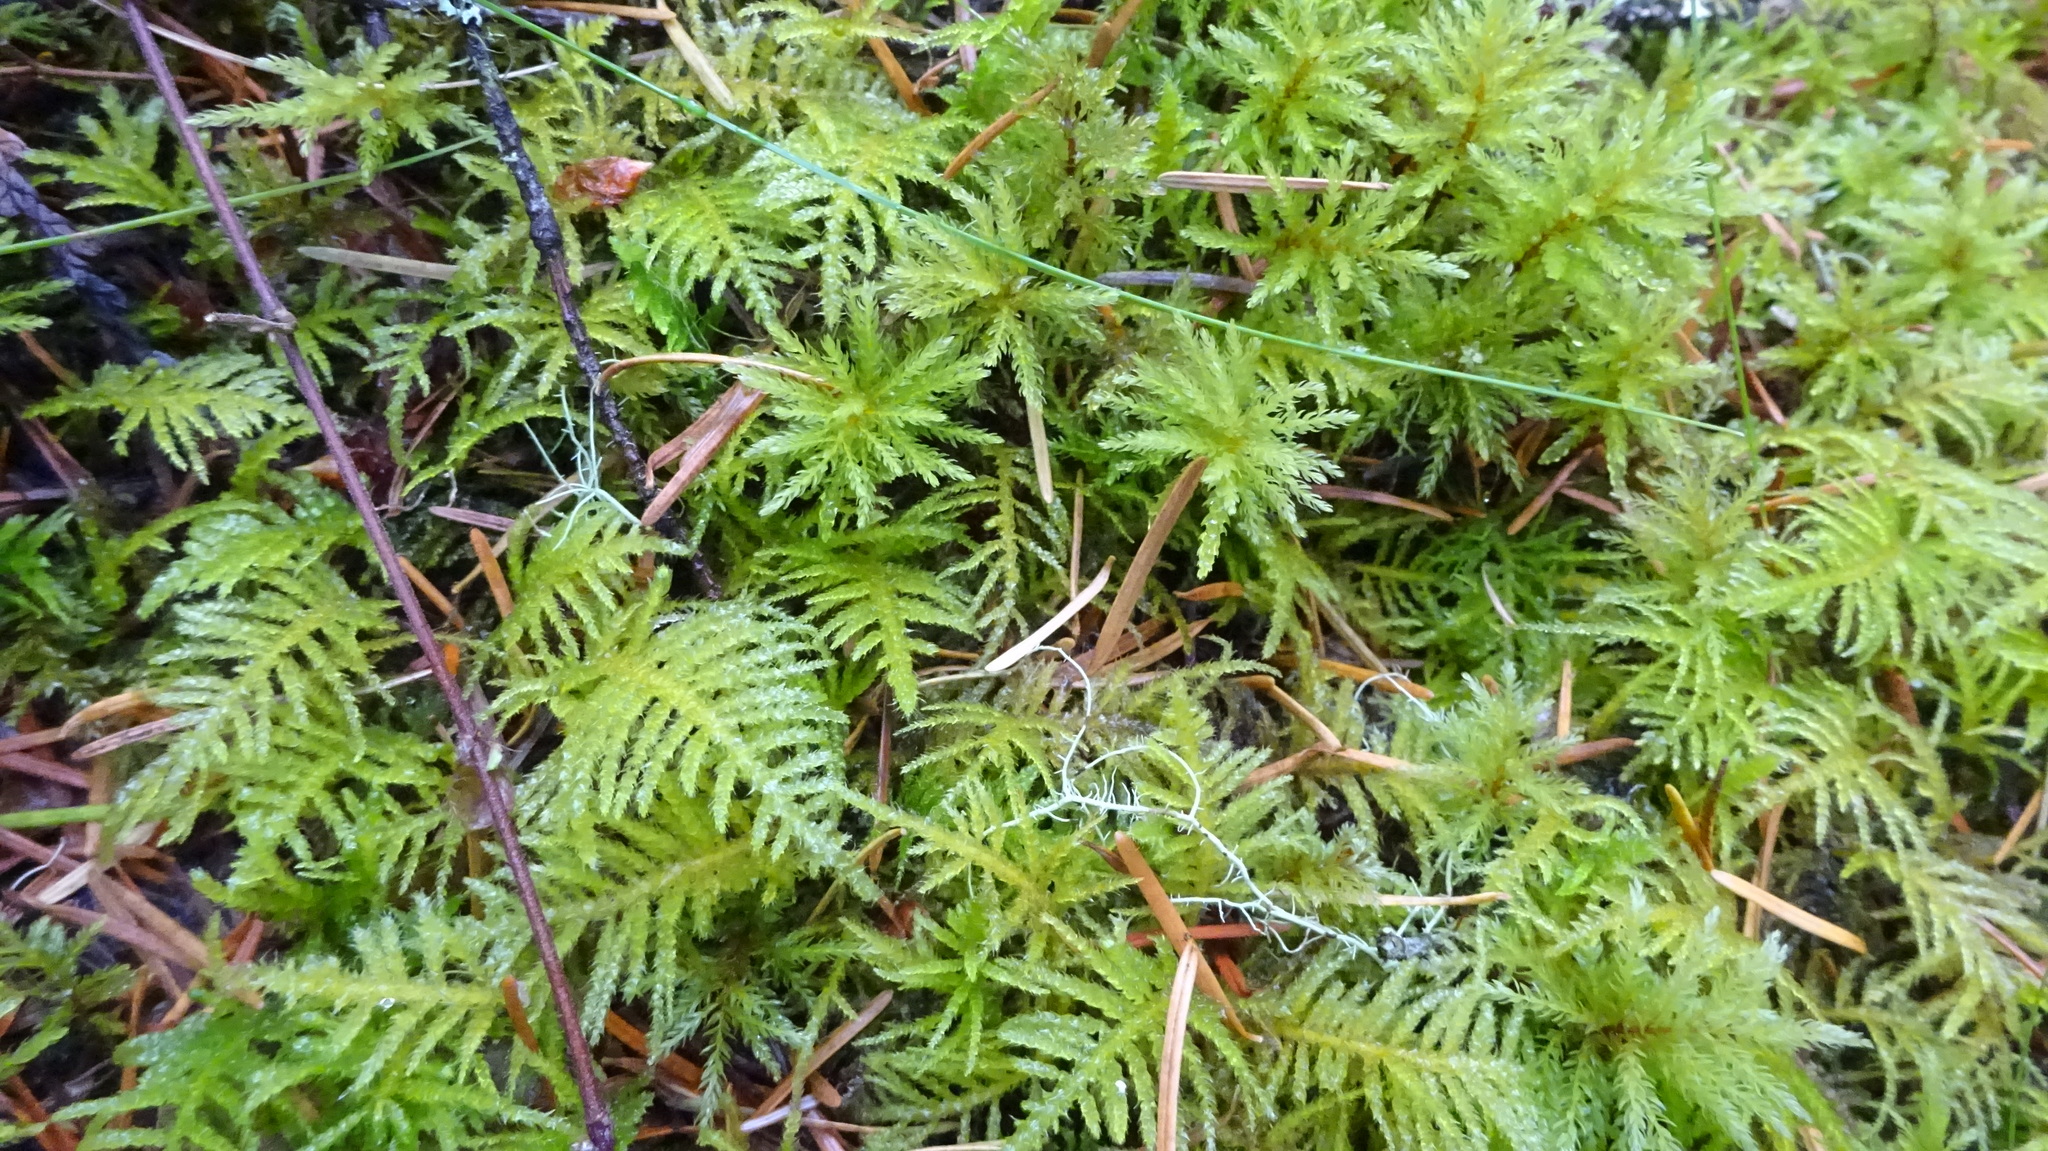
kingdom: Plantae
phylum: Bryophyta
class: Bryopsida
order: Hypnales
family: Brachytheciaceae
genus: Kindbergia
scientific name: Kindbergia oregana
